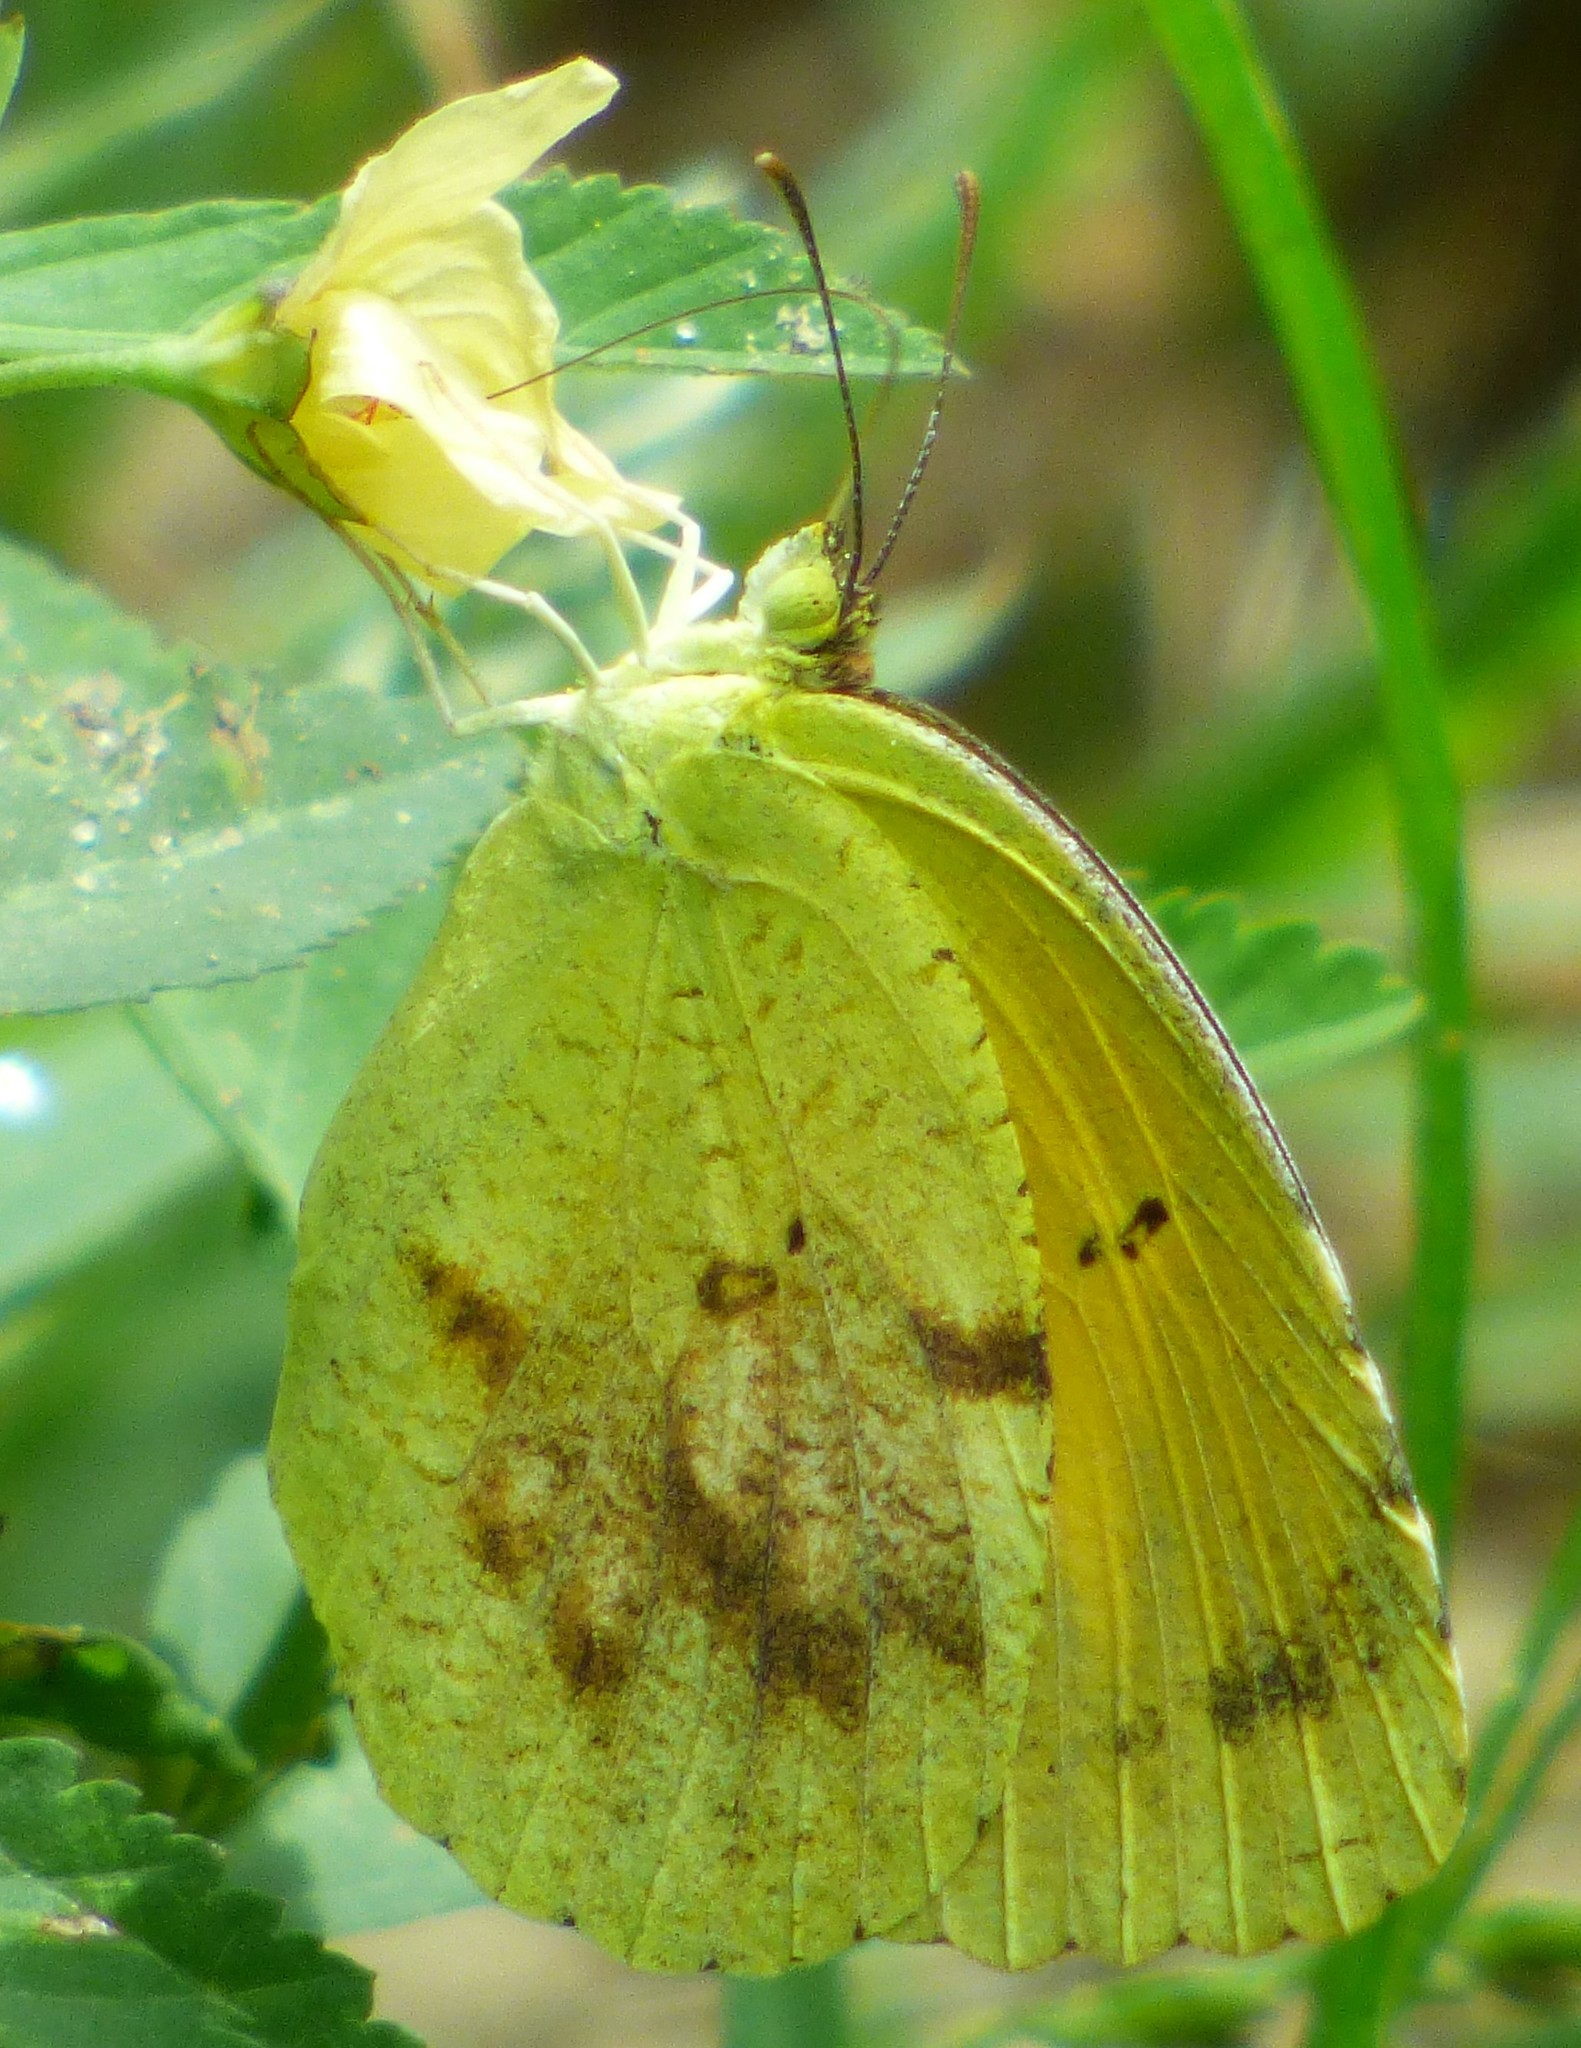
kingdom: Animalia
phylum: Arthropoda
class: Insecta
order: Lepidoptera
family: Pieridae
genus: Abaeis
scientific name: Abaeis nicippe
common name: Sleepy orange
